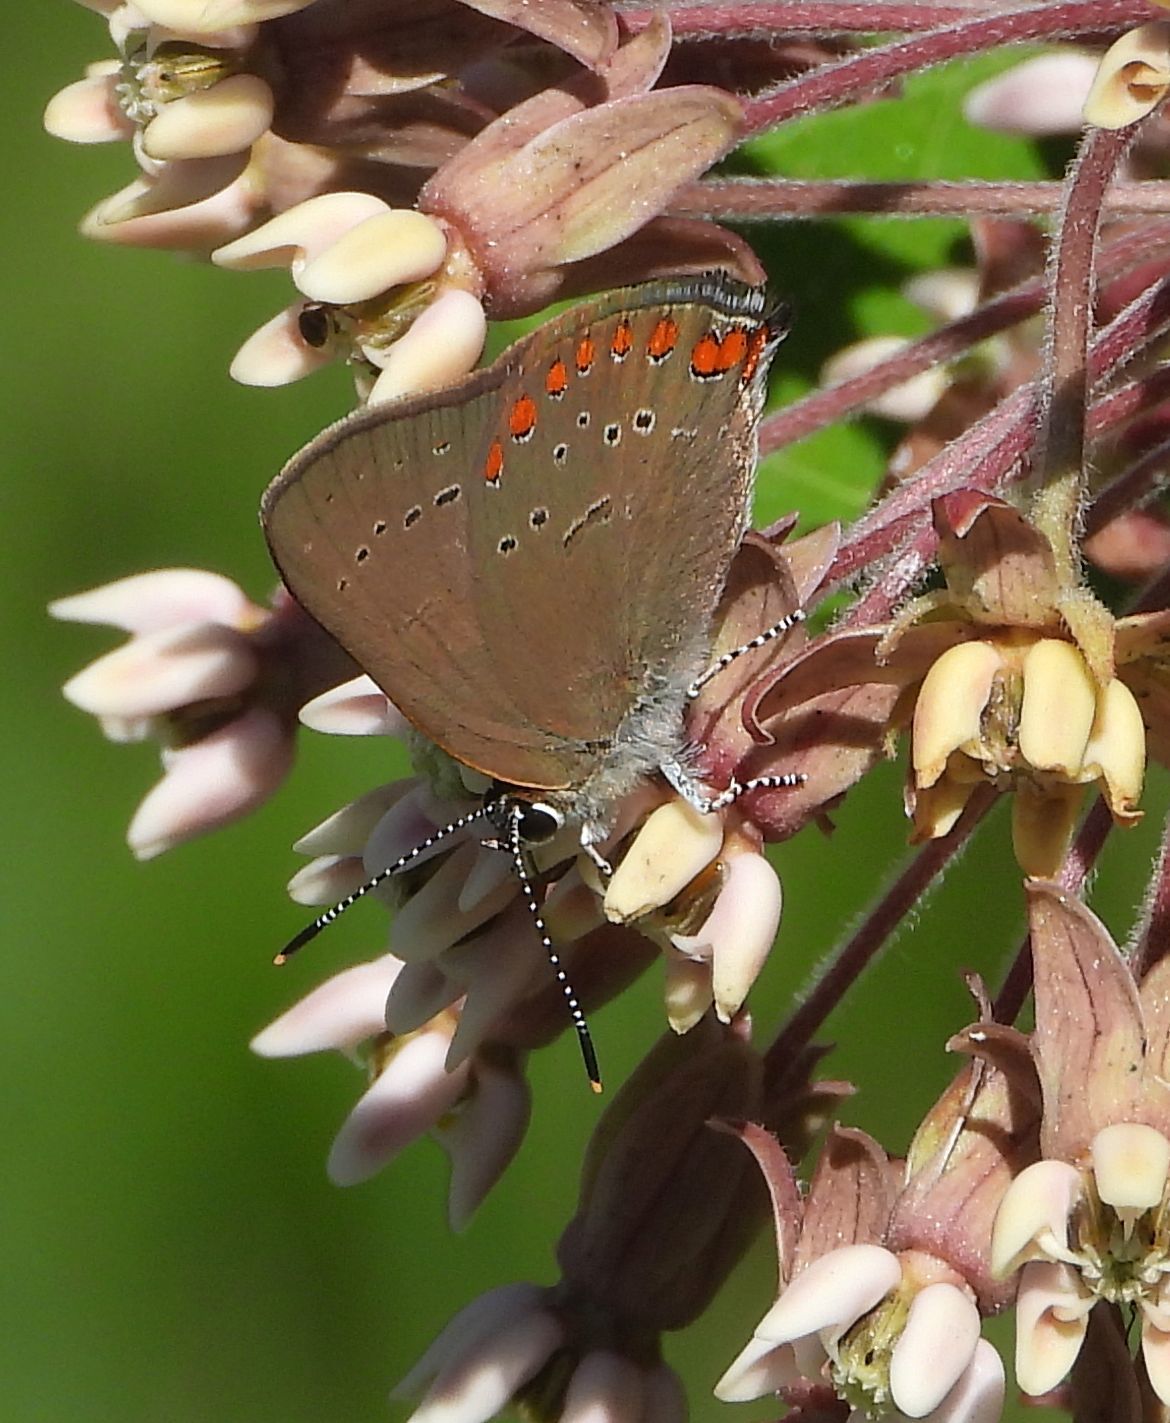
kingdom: Animalia
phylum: Arthropoda
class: Insecta
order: Lepidoptera
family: Lycaenidae
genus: Harkenclenus
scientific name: Harkenclenus titus
